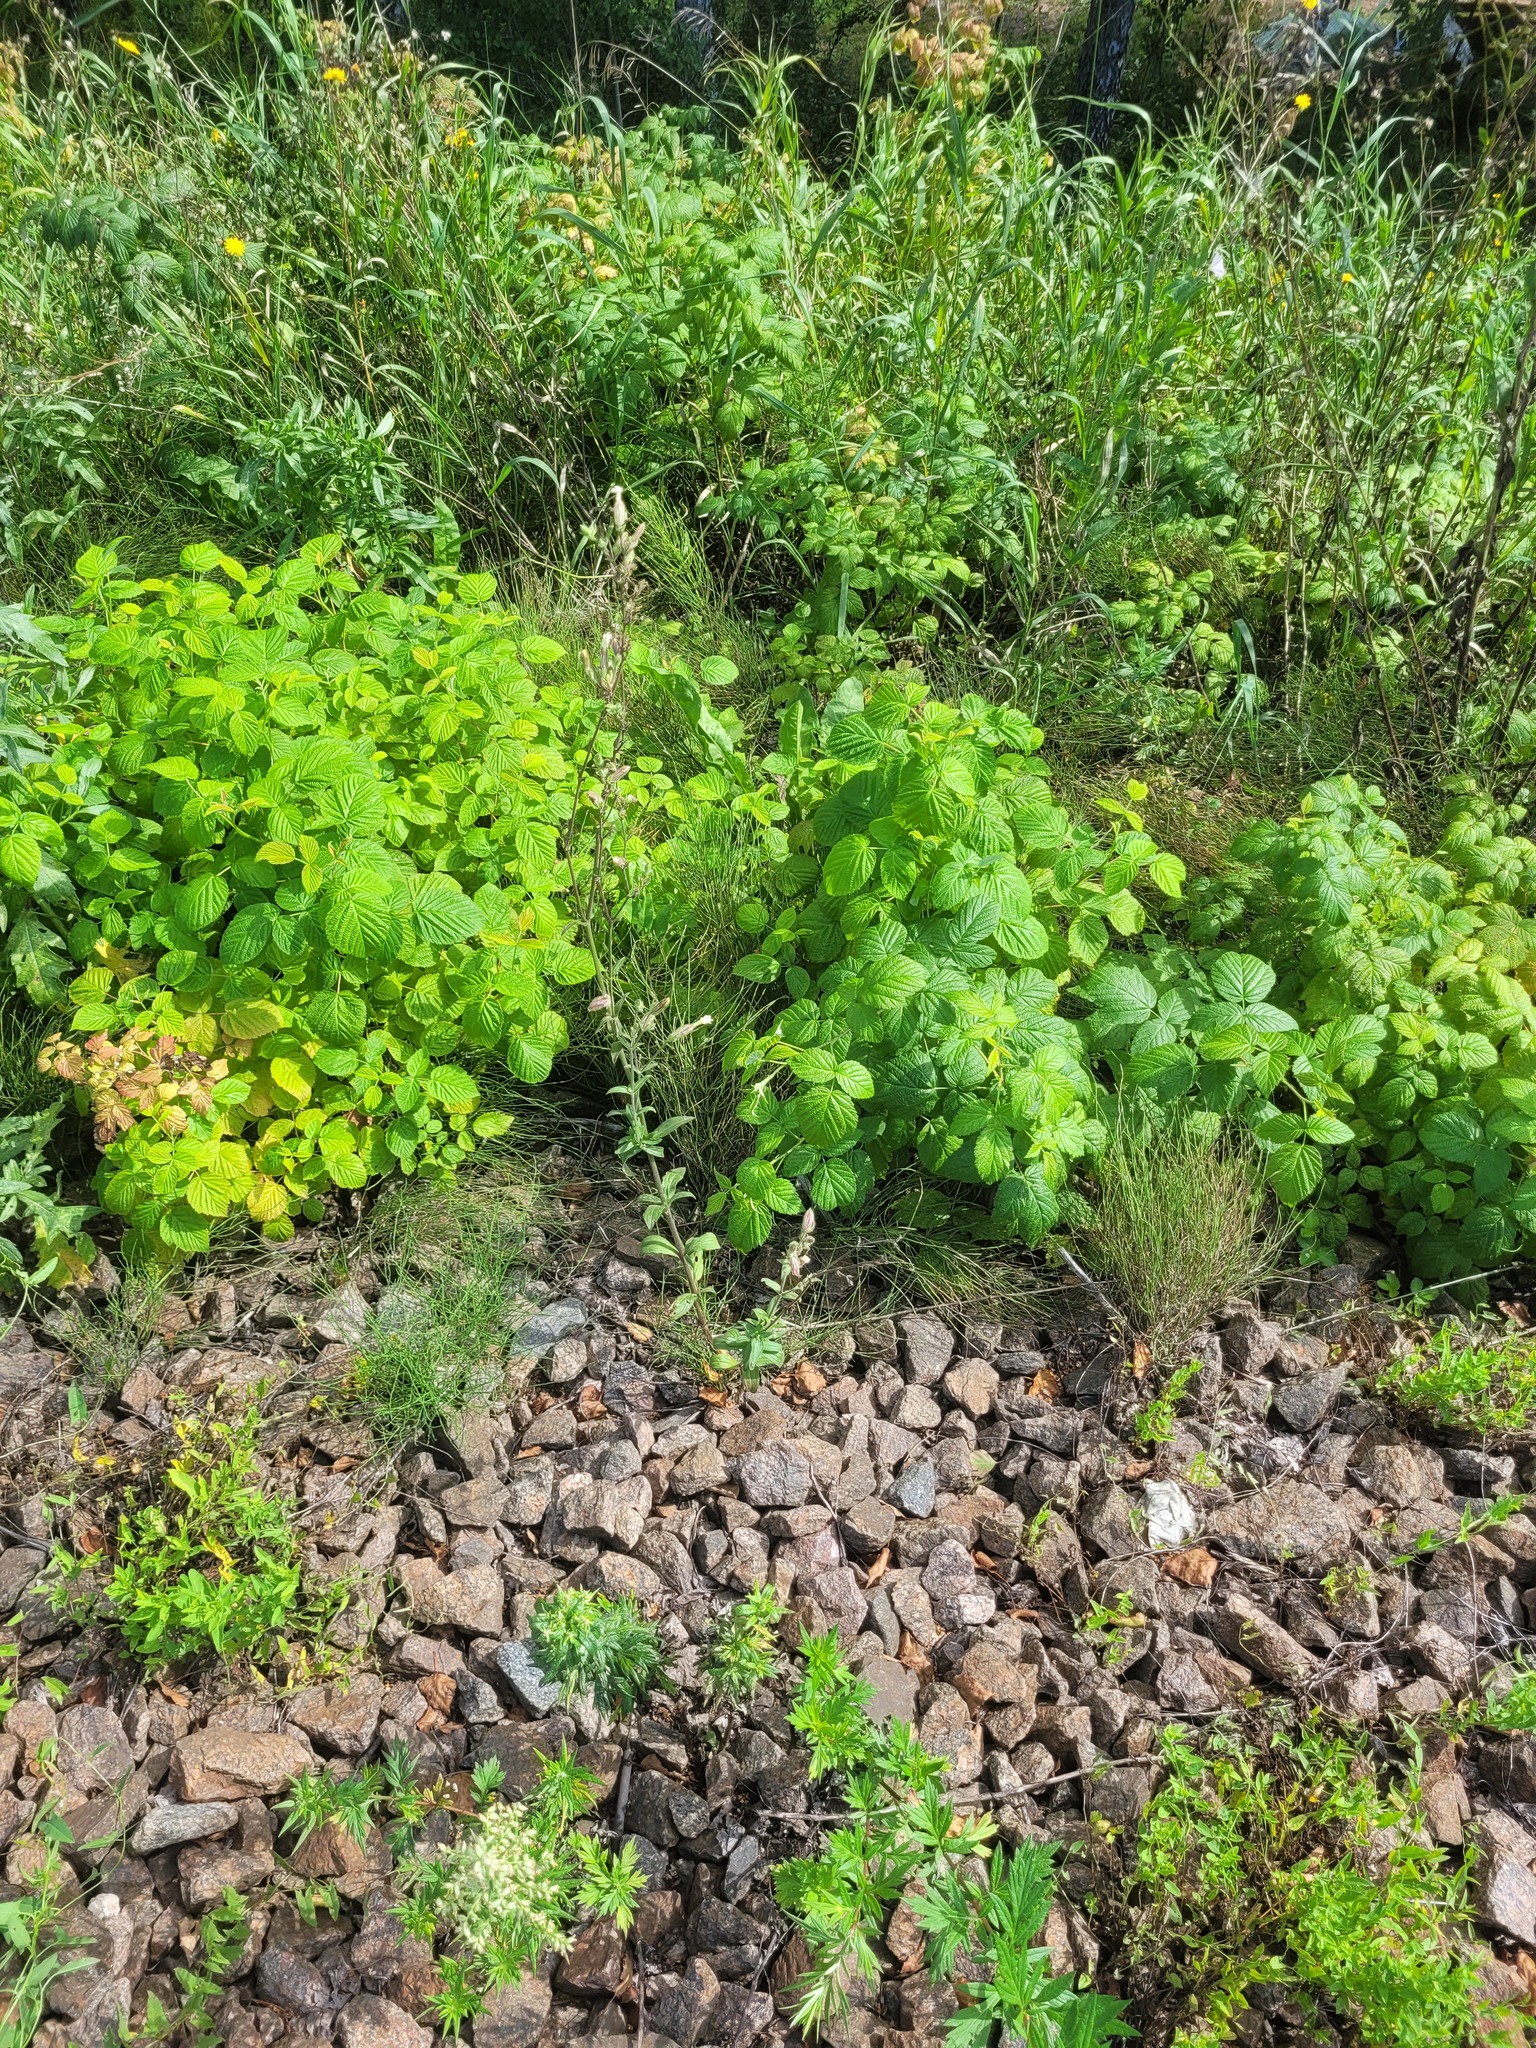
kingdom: Plantae
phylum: Tracheophyta
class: Magnoliopsida
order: Caryophyllales
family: Caryophyllaceae
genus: Silene
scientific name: Silene latifolia
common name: White campion
